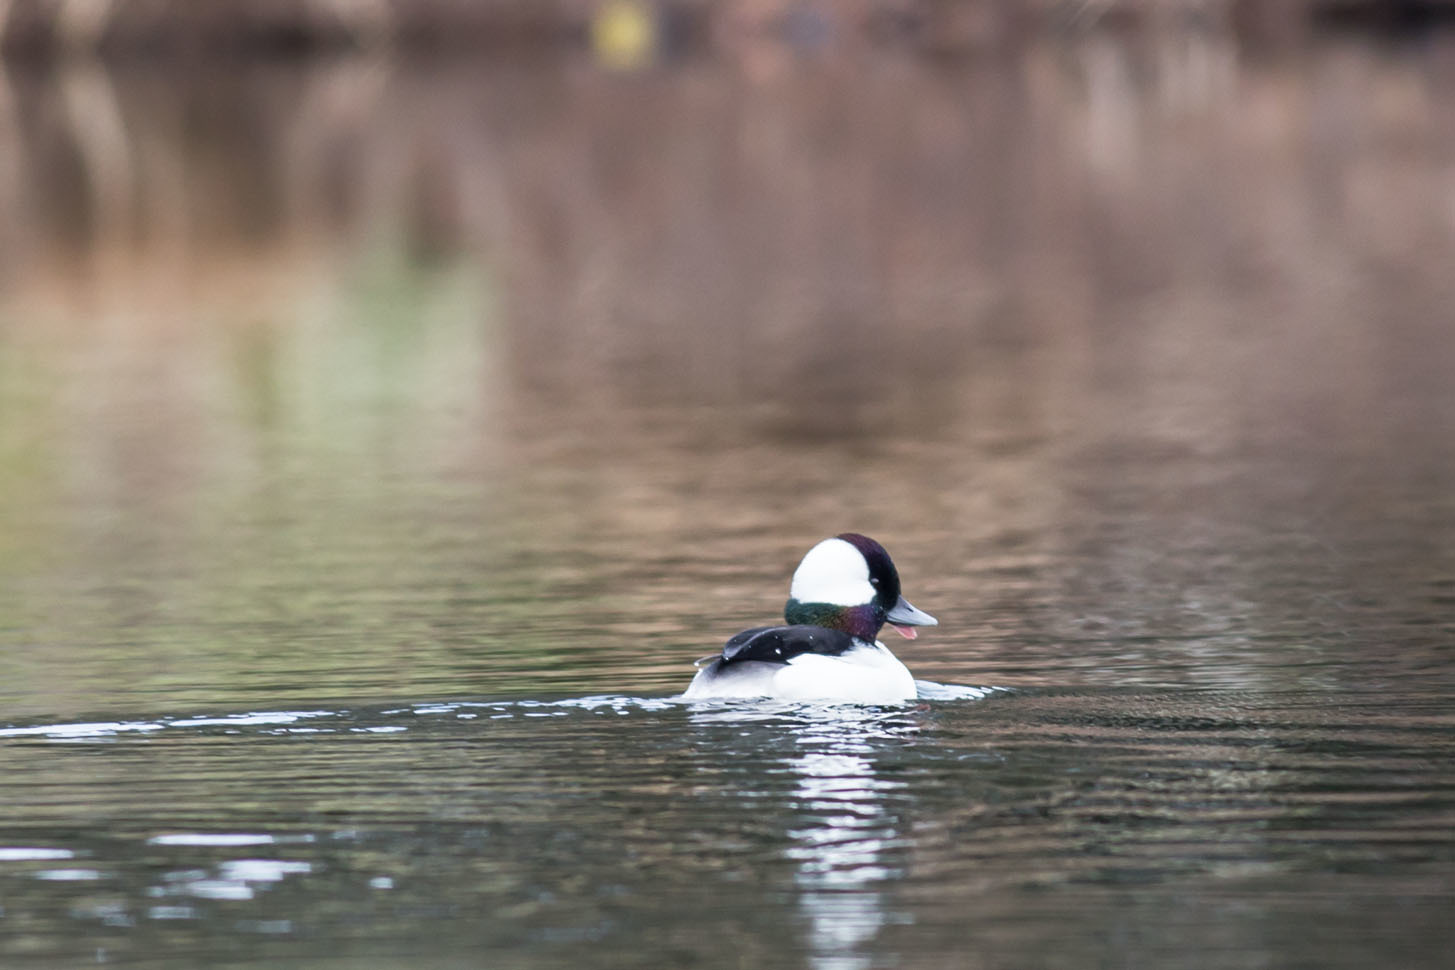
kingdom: Animalia
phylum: Chordata
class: Aves
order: Anseriformes
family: Anatidae
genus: Bucephala
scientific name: Bucephala albeola
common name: Bufflehead
